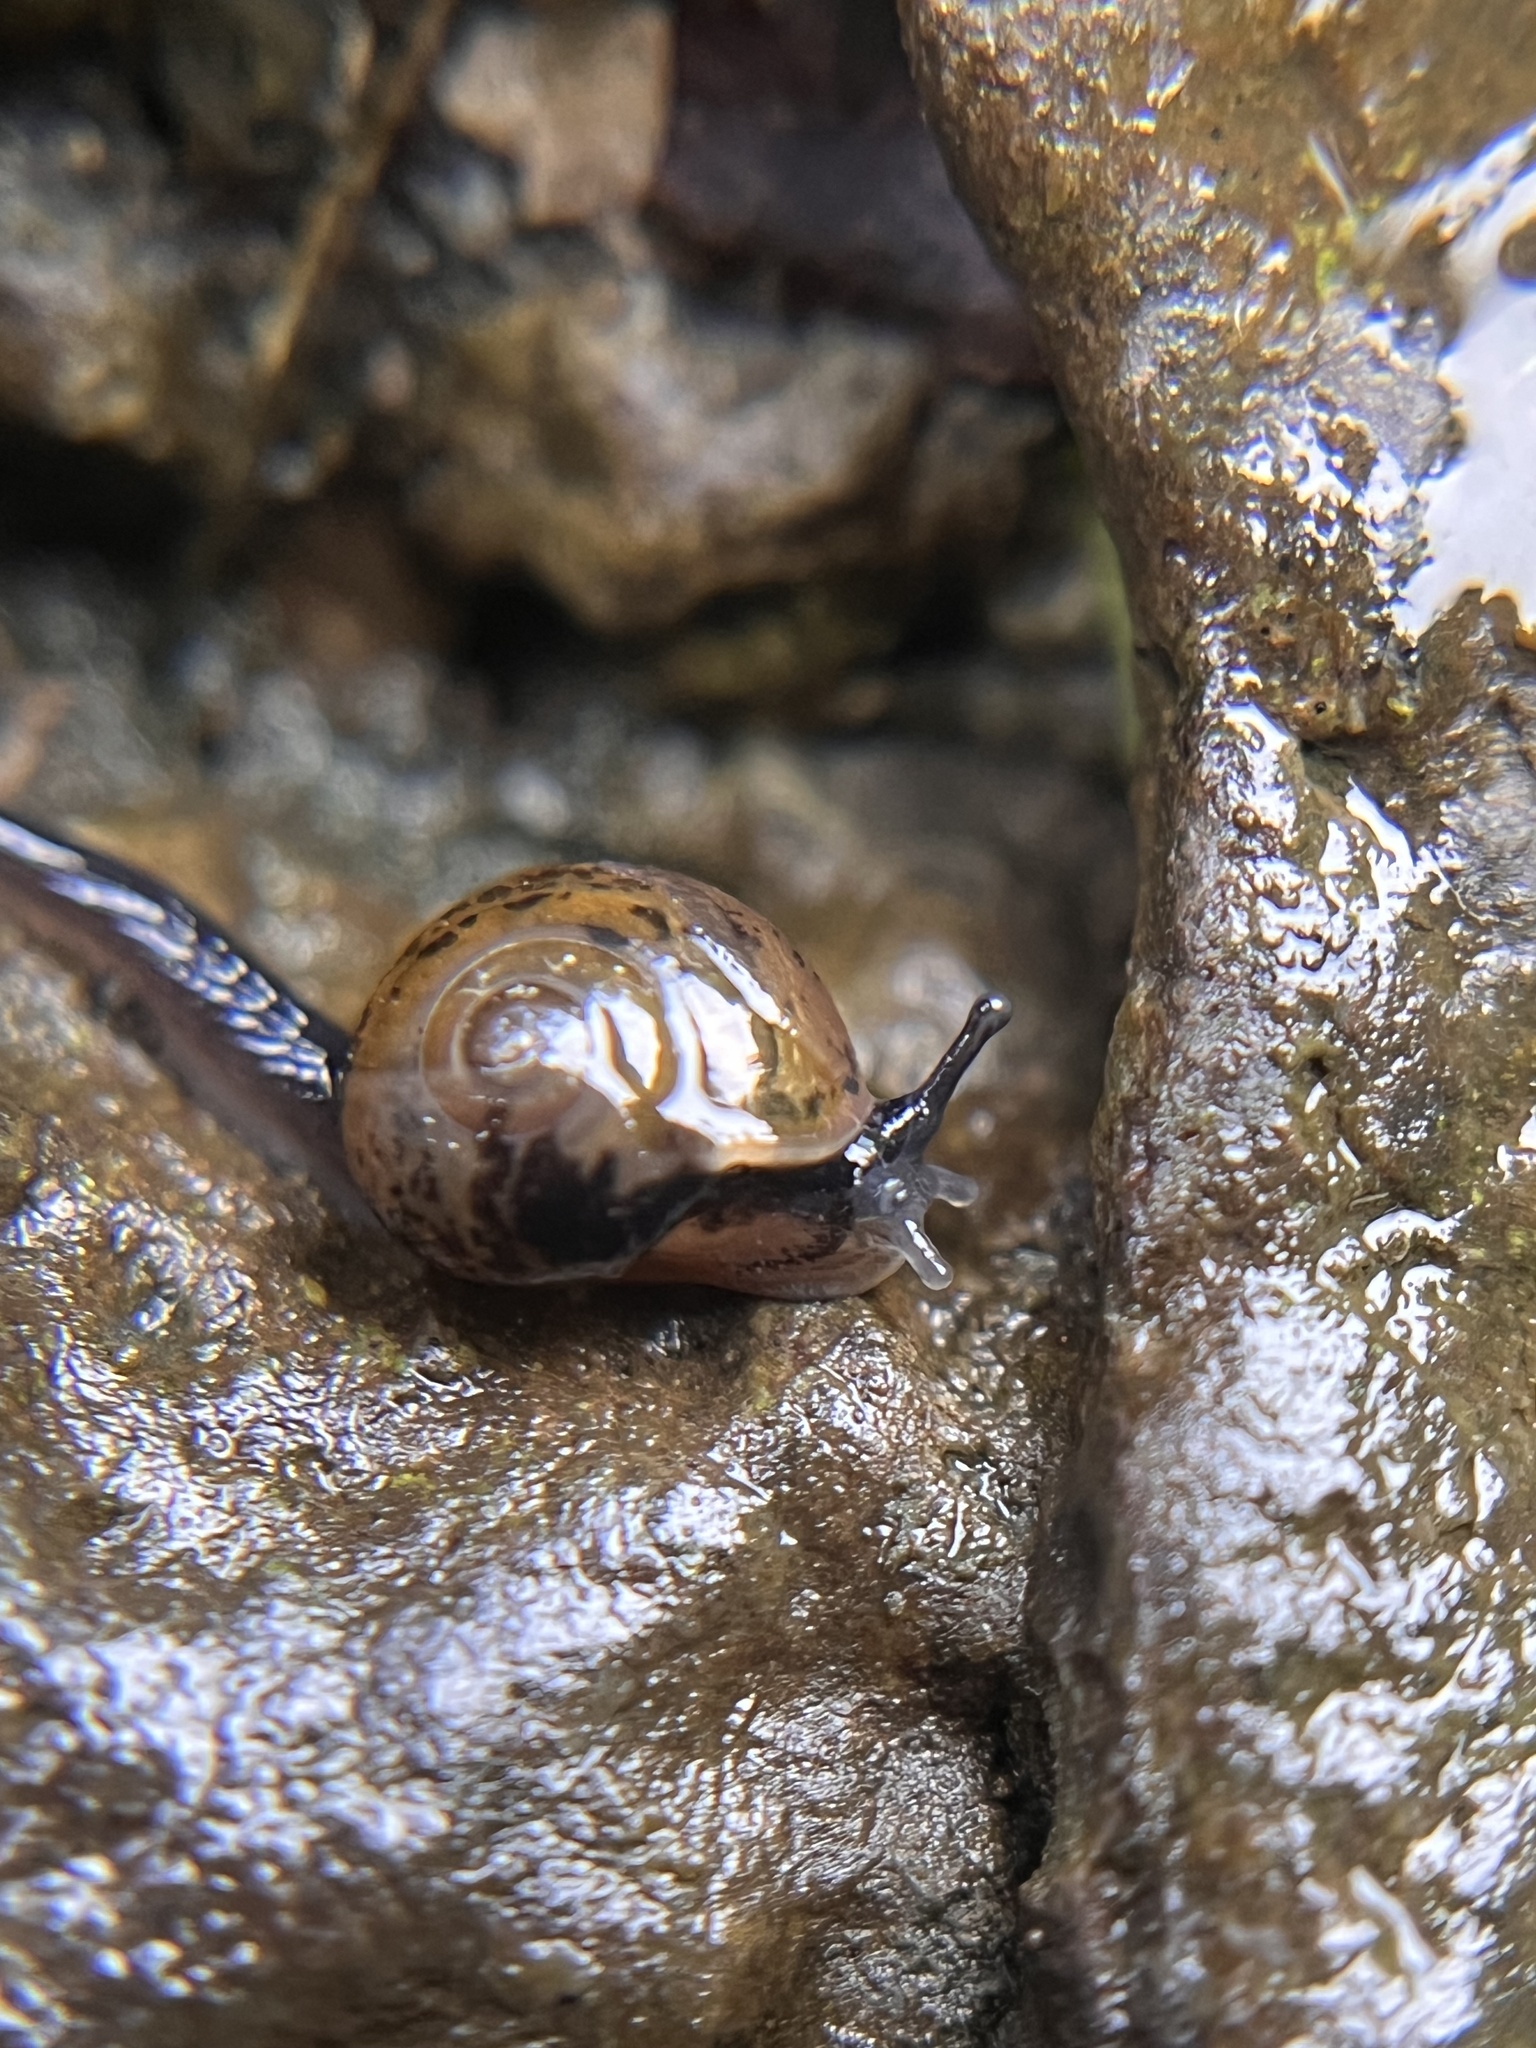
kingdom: Animalia
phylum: Mollusca
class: Gastropoda
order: Stylommatophora
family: Helicarionidae
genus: Ovachlamys
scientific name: Ovachlamys fulgens
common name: Jumping snail
